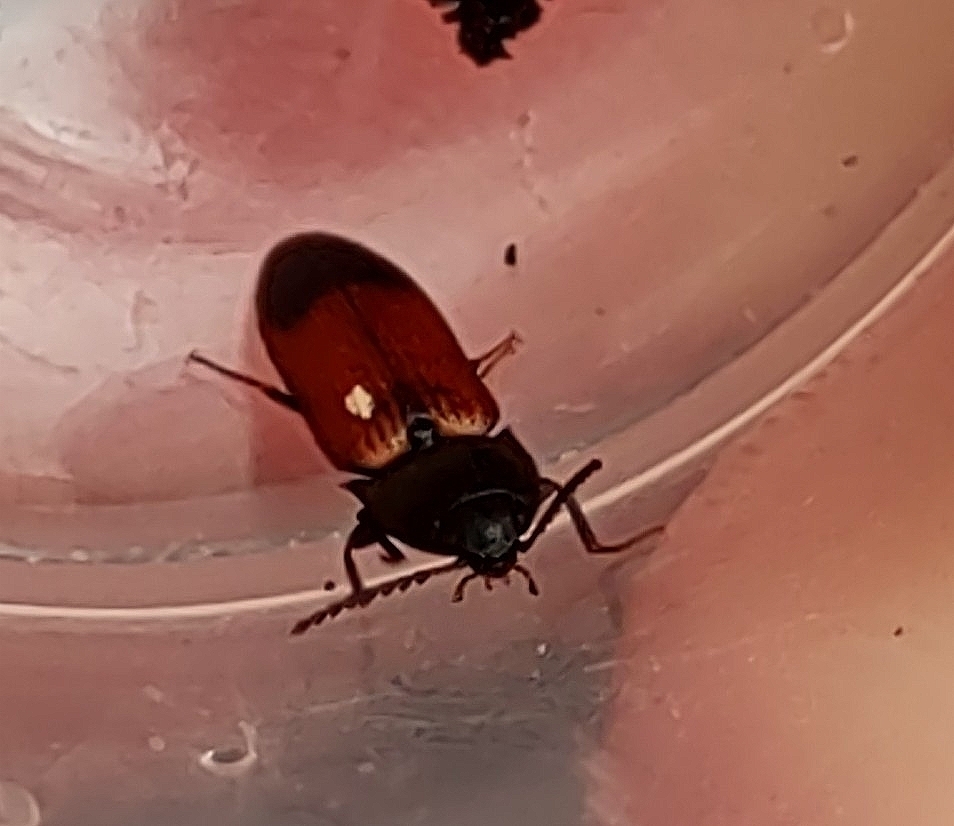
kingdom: Animalia
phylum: Arthropoda
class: Insecta
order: Coleoptera
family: Elateridae
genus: Ampedus
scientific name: Ampedus balteatus
